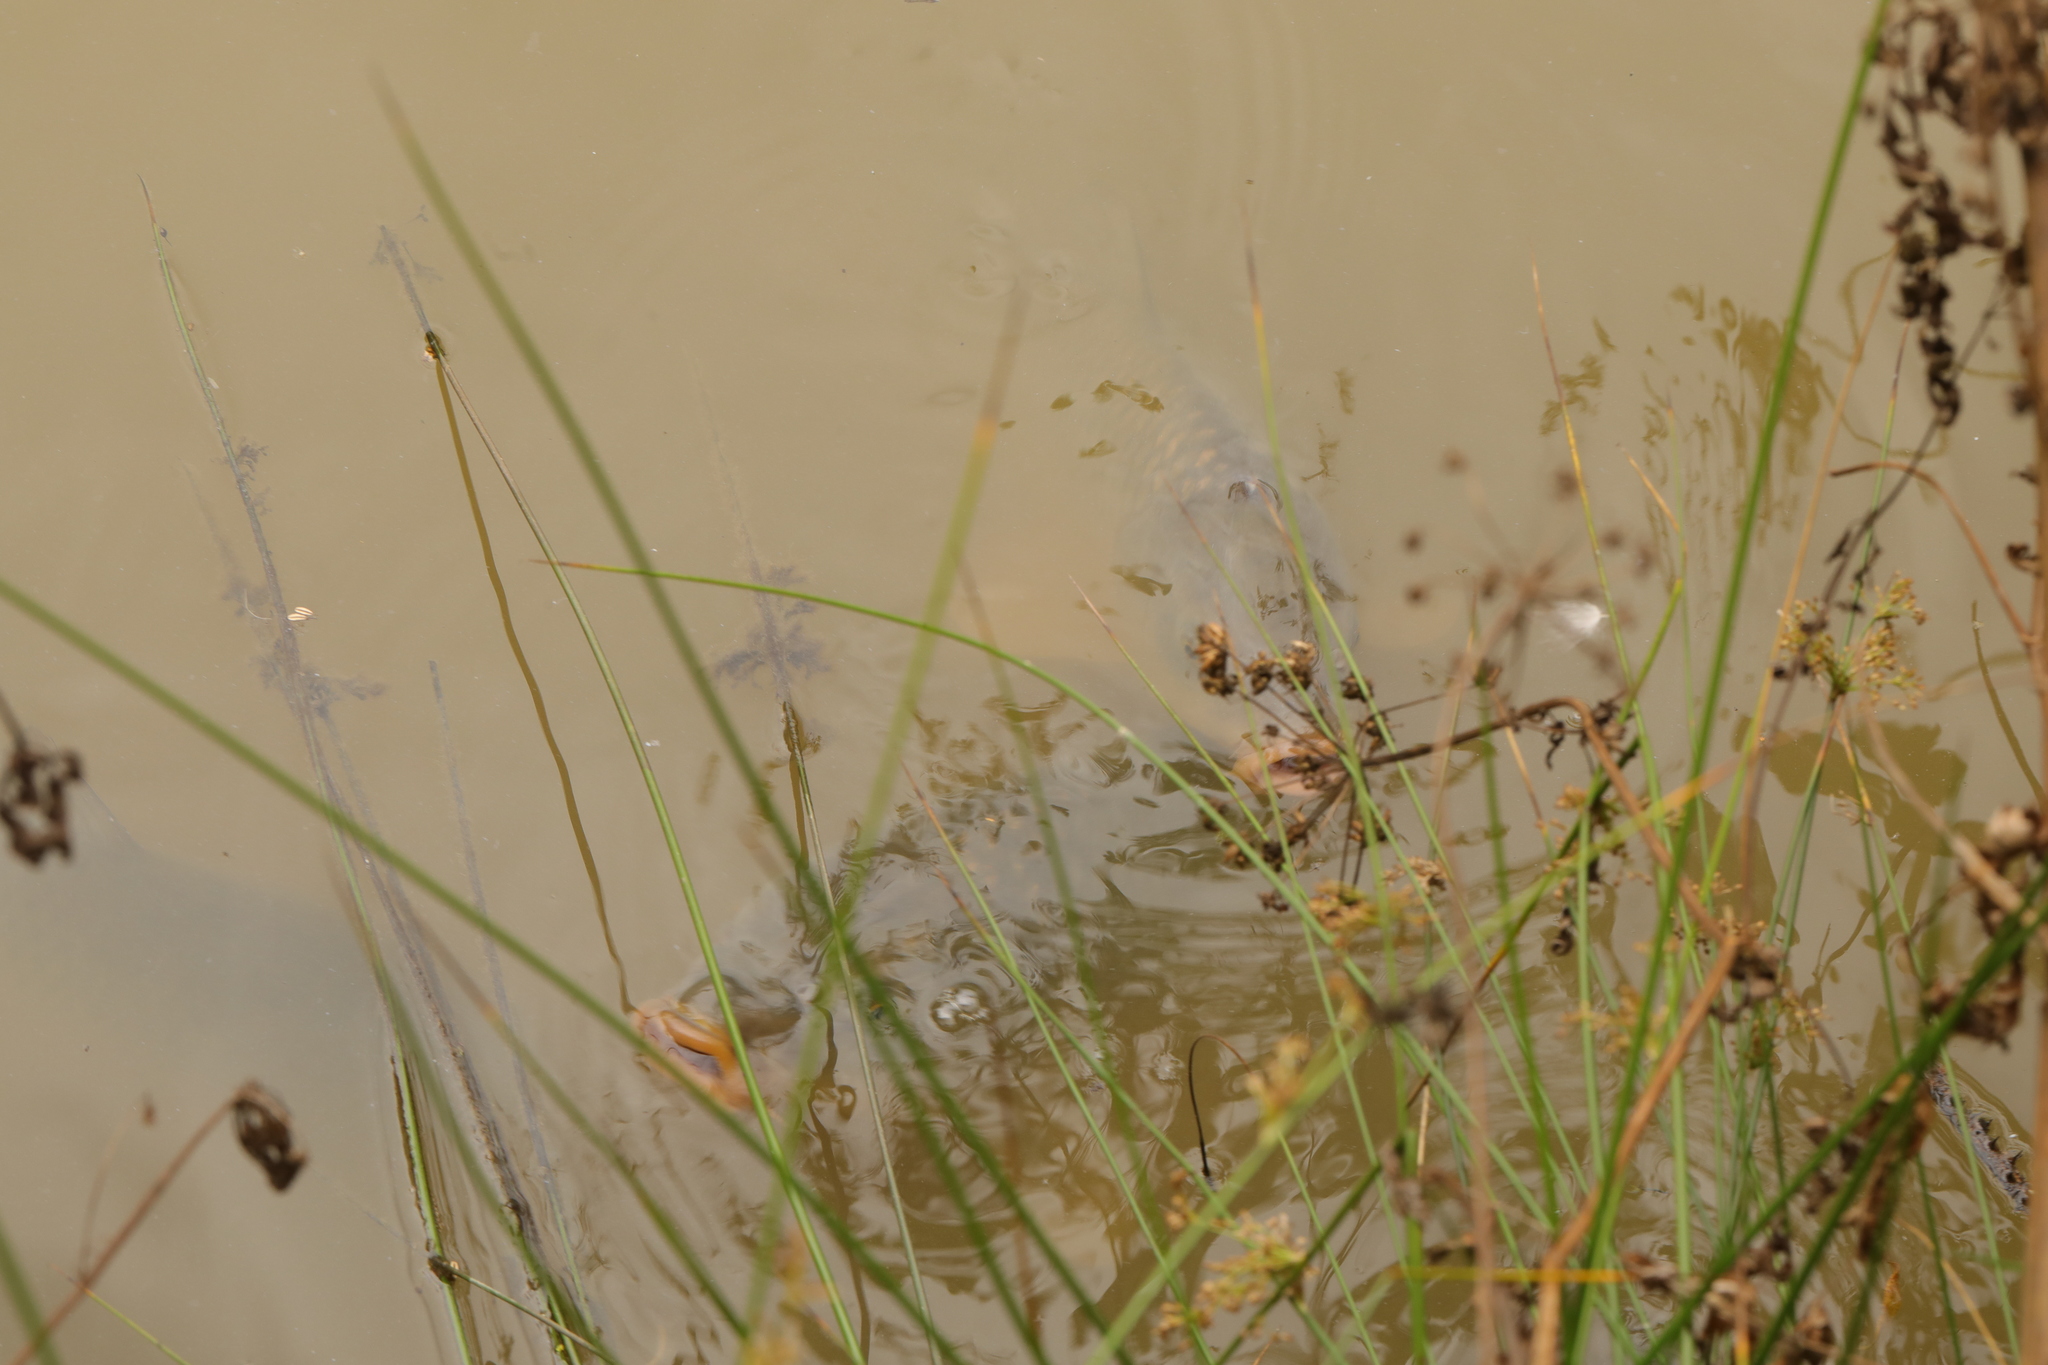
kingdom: Animalia
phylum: Chordata
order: Cypriniformes
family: Cyprinidae
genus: Cyprinus
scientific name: Cyprinus carpio
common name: Common carp
